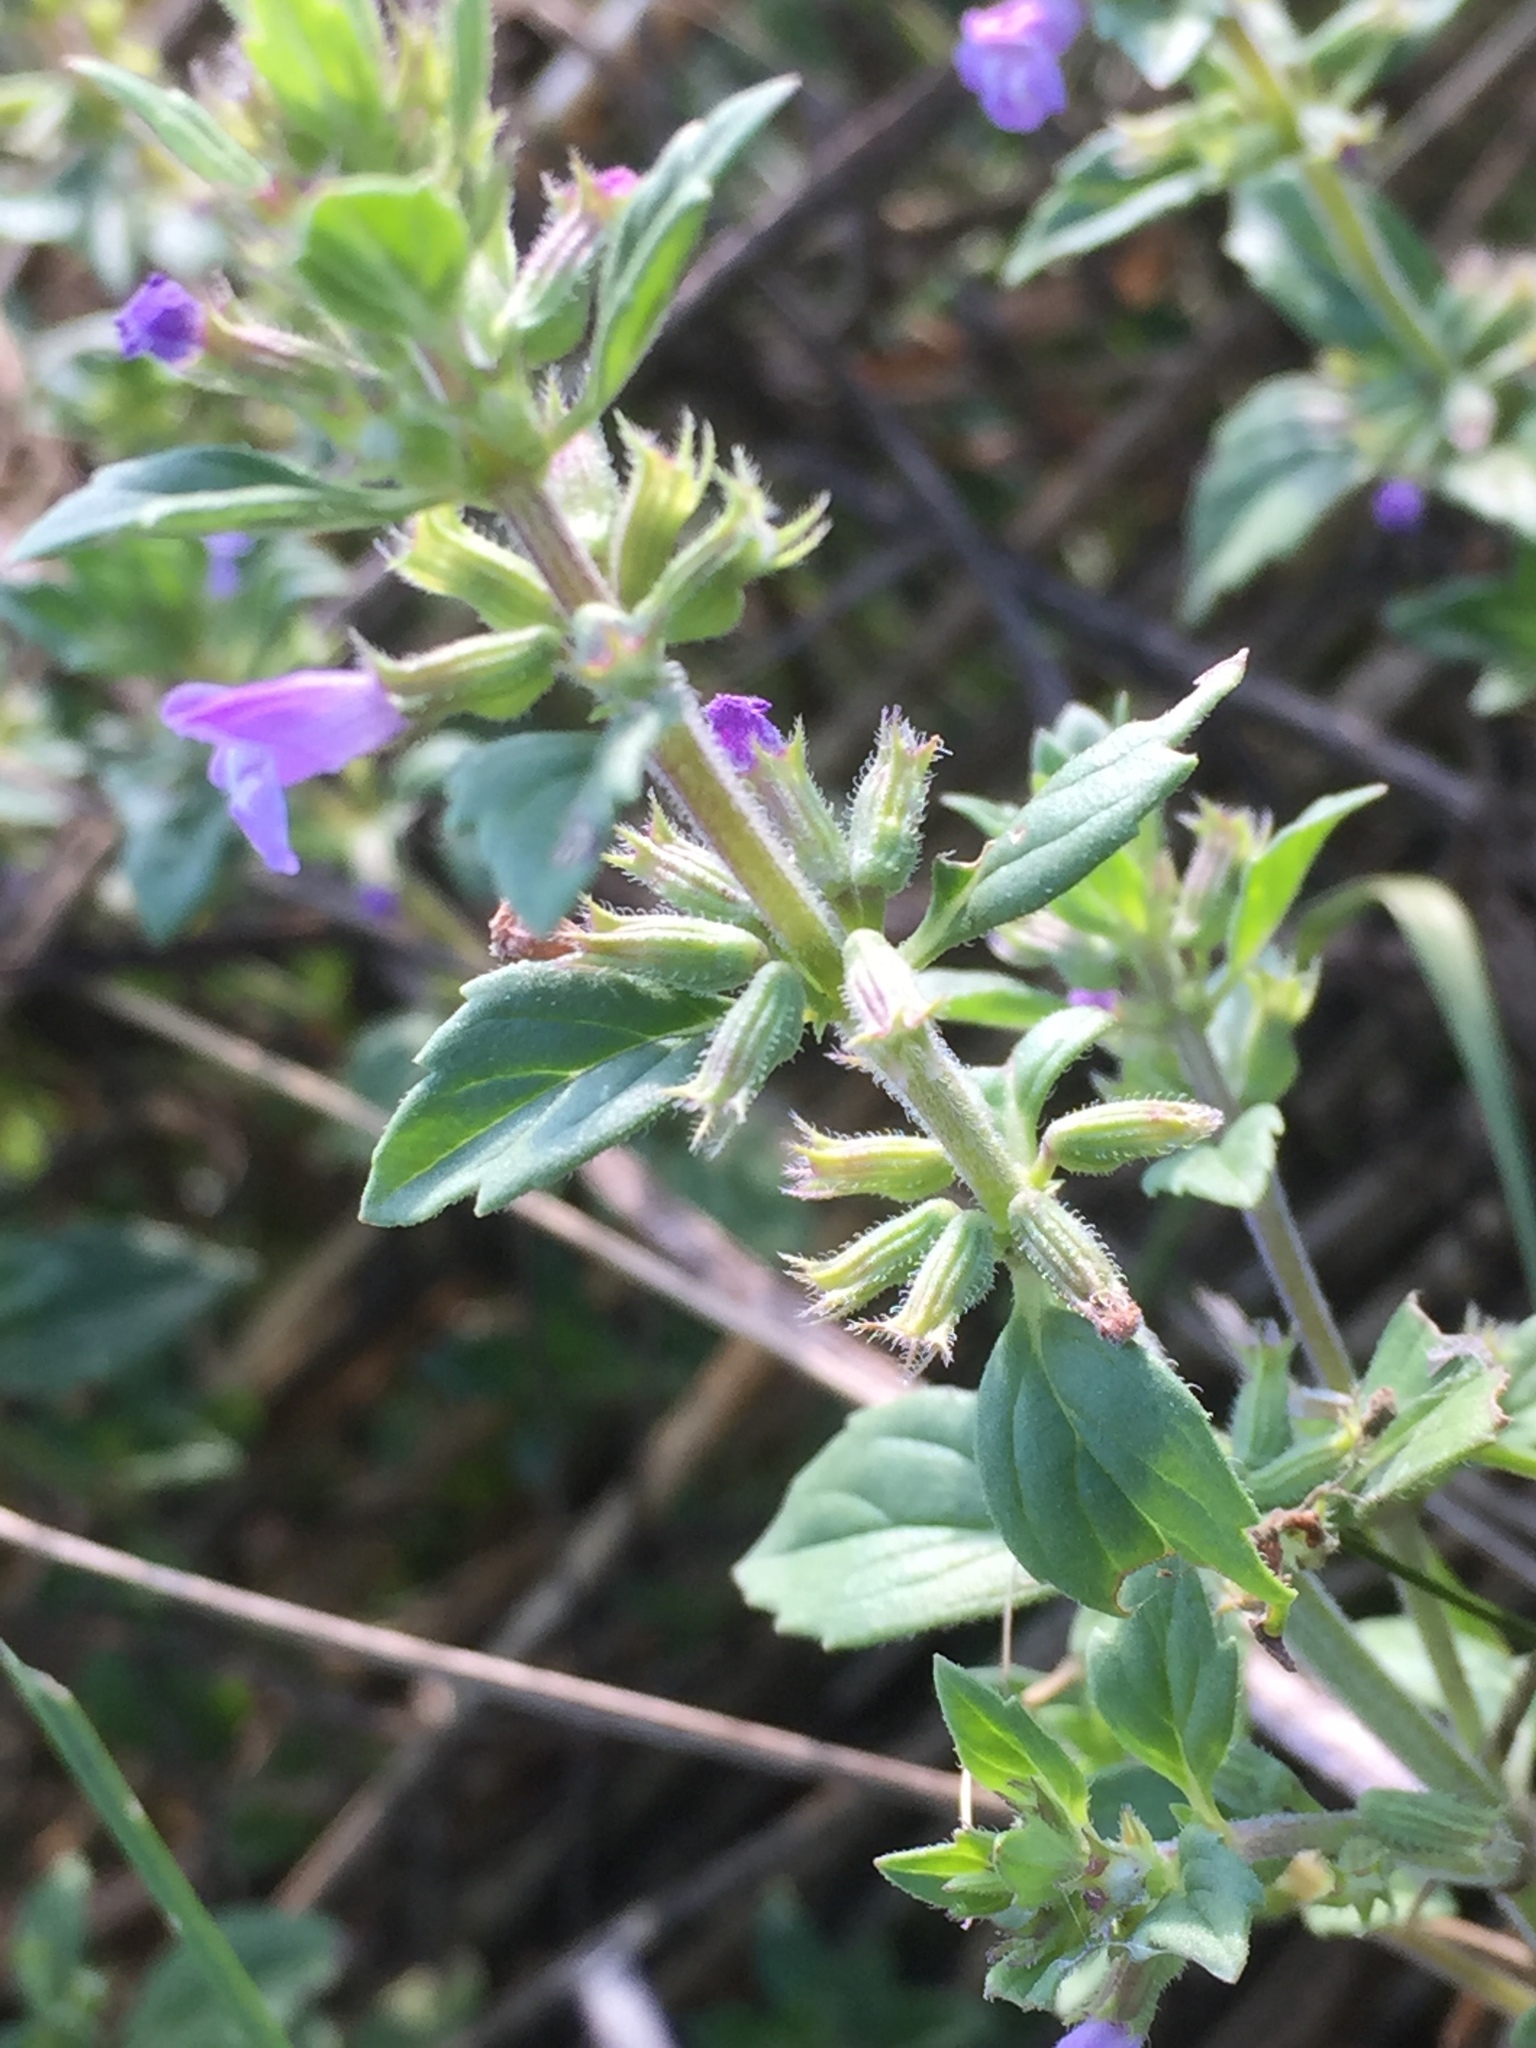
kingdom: Plantae
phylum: Tracheophyta
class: Magnoliopsida
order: Lamiales
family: Lamiaceae
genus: Clinopodium
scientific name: Clinopodium acinos
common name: Basil thyme
